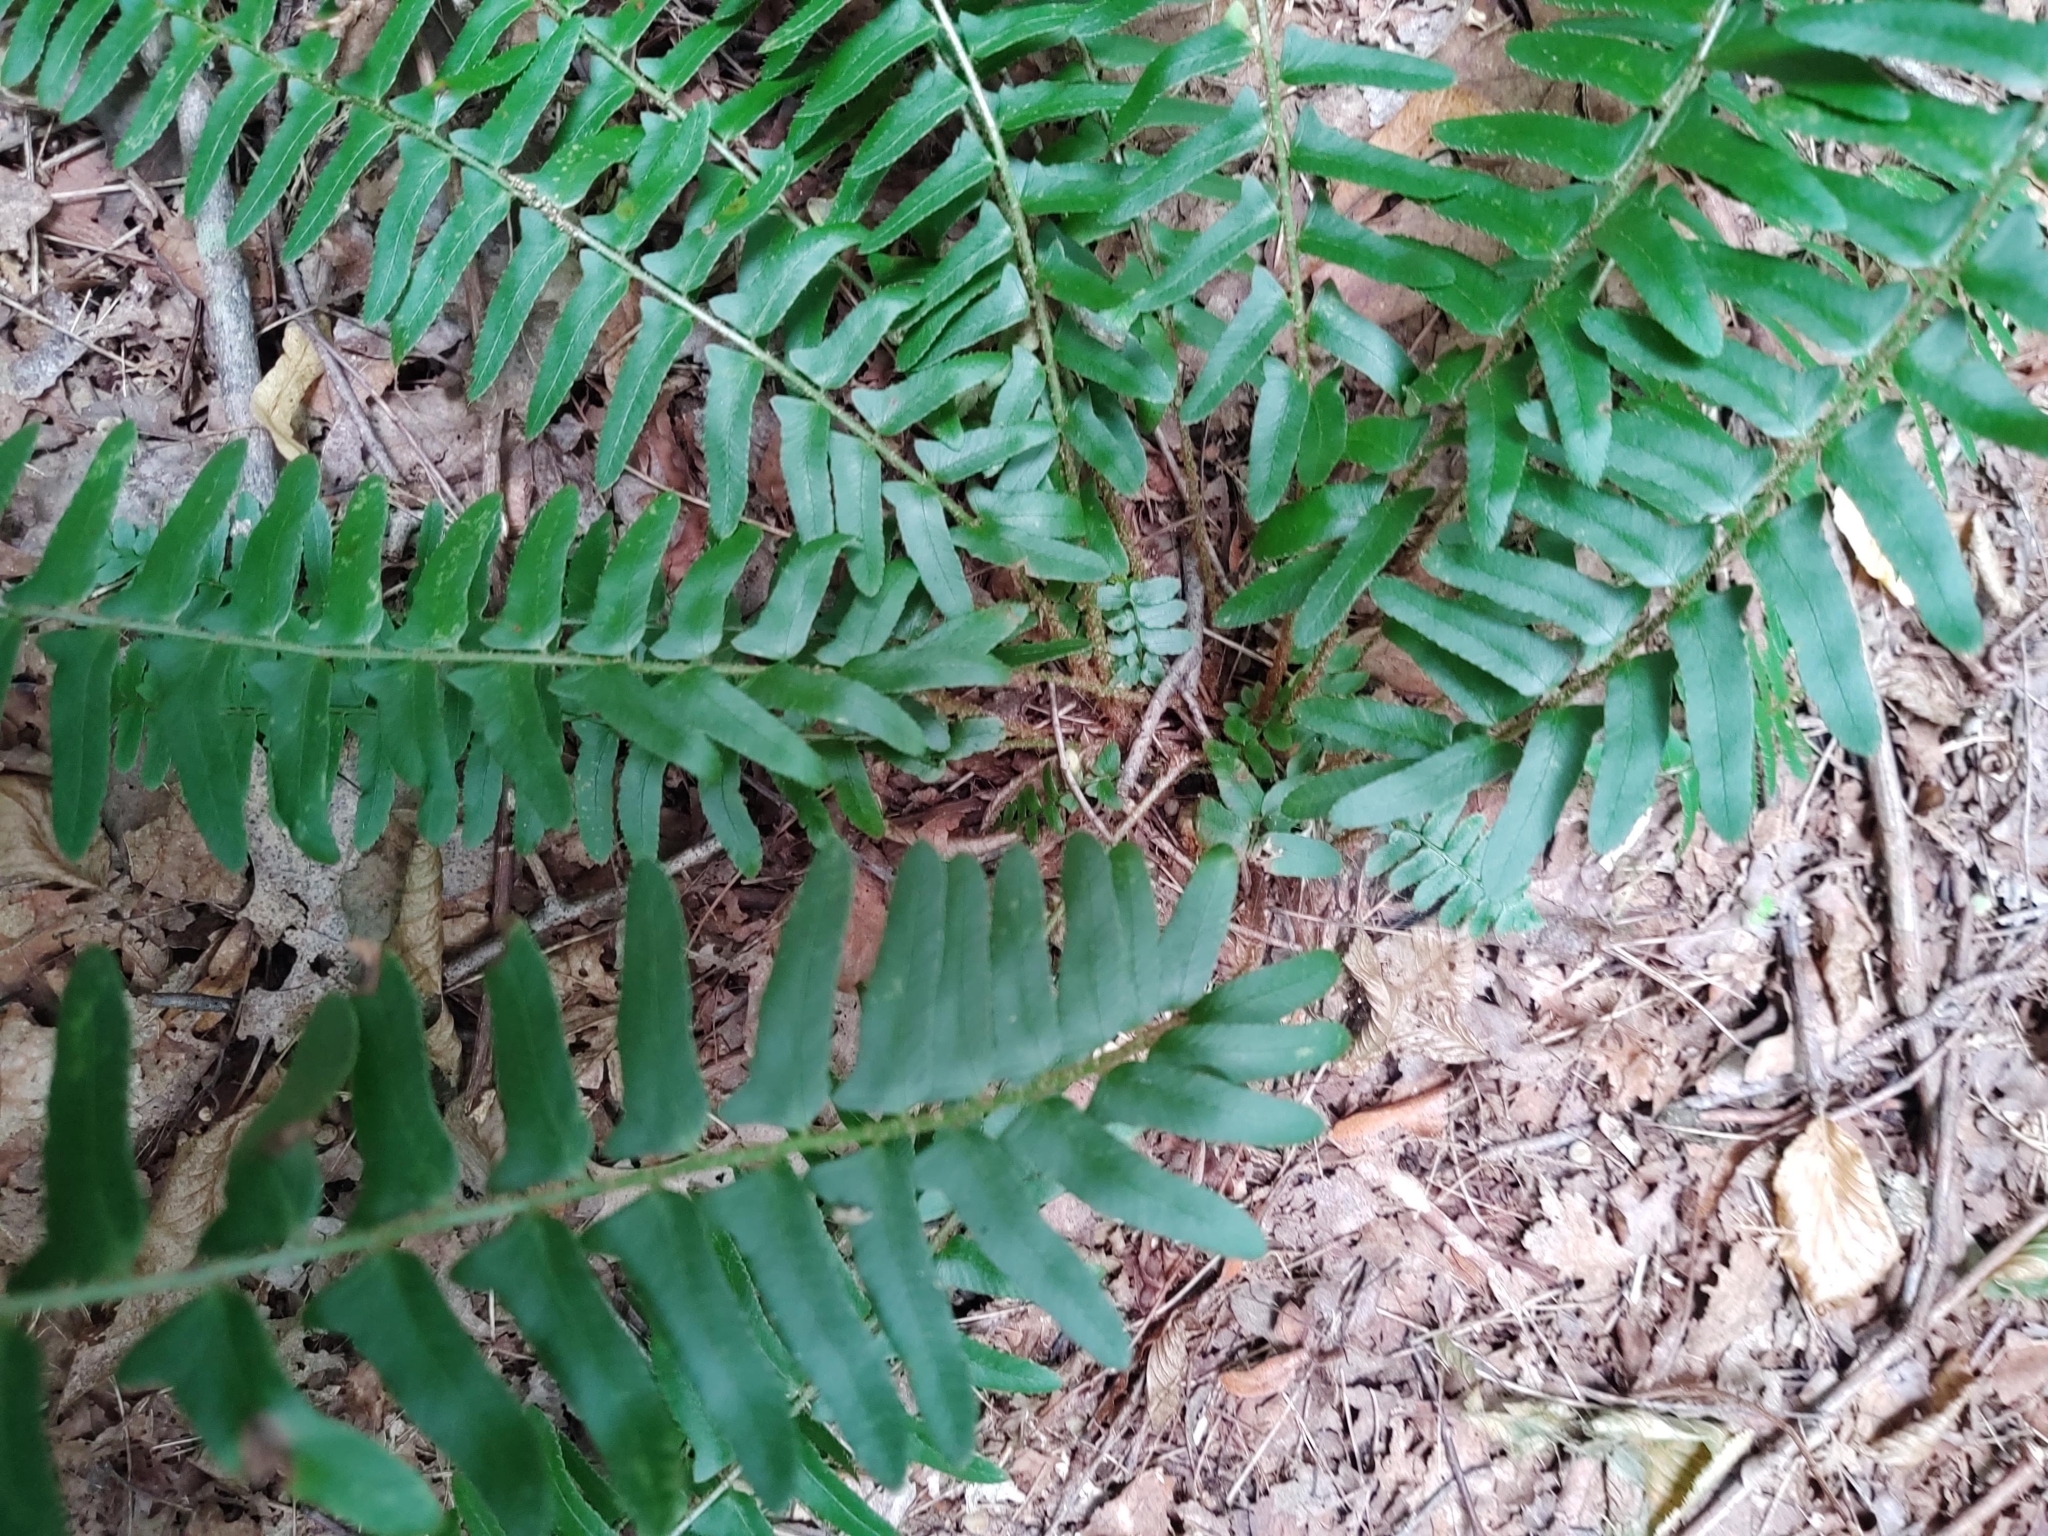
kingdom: Plantae
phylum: Tracheophyta
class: Polypodiopsida
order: Polypodiales
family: Dryopteridaceae
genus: Polystichum
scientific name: Polystichum acrostichoides
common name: Christmas fern
